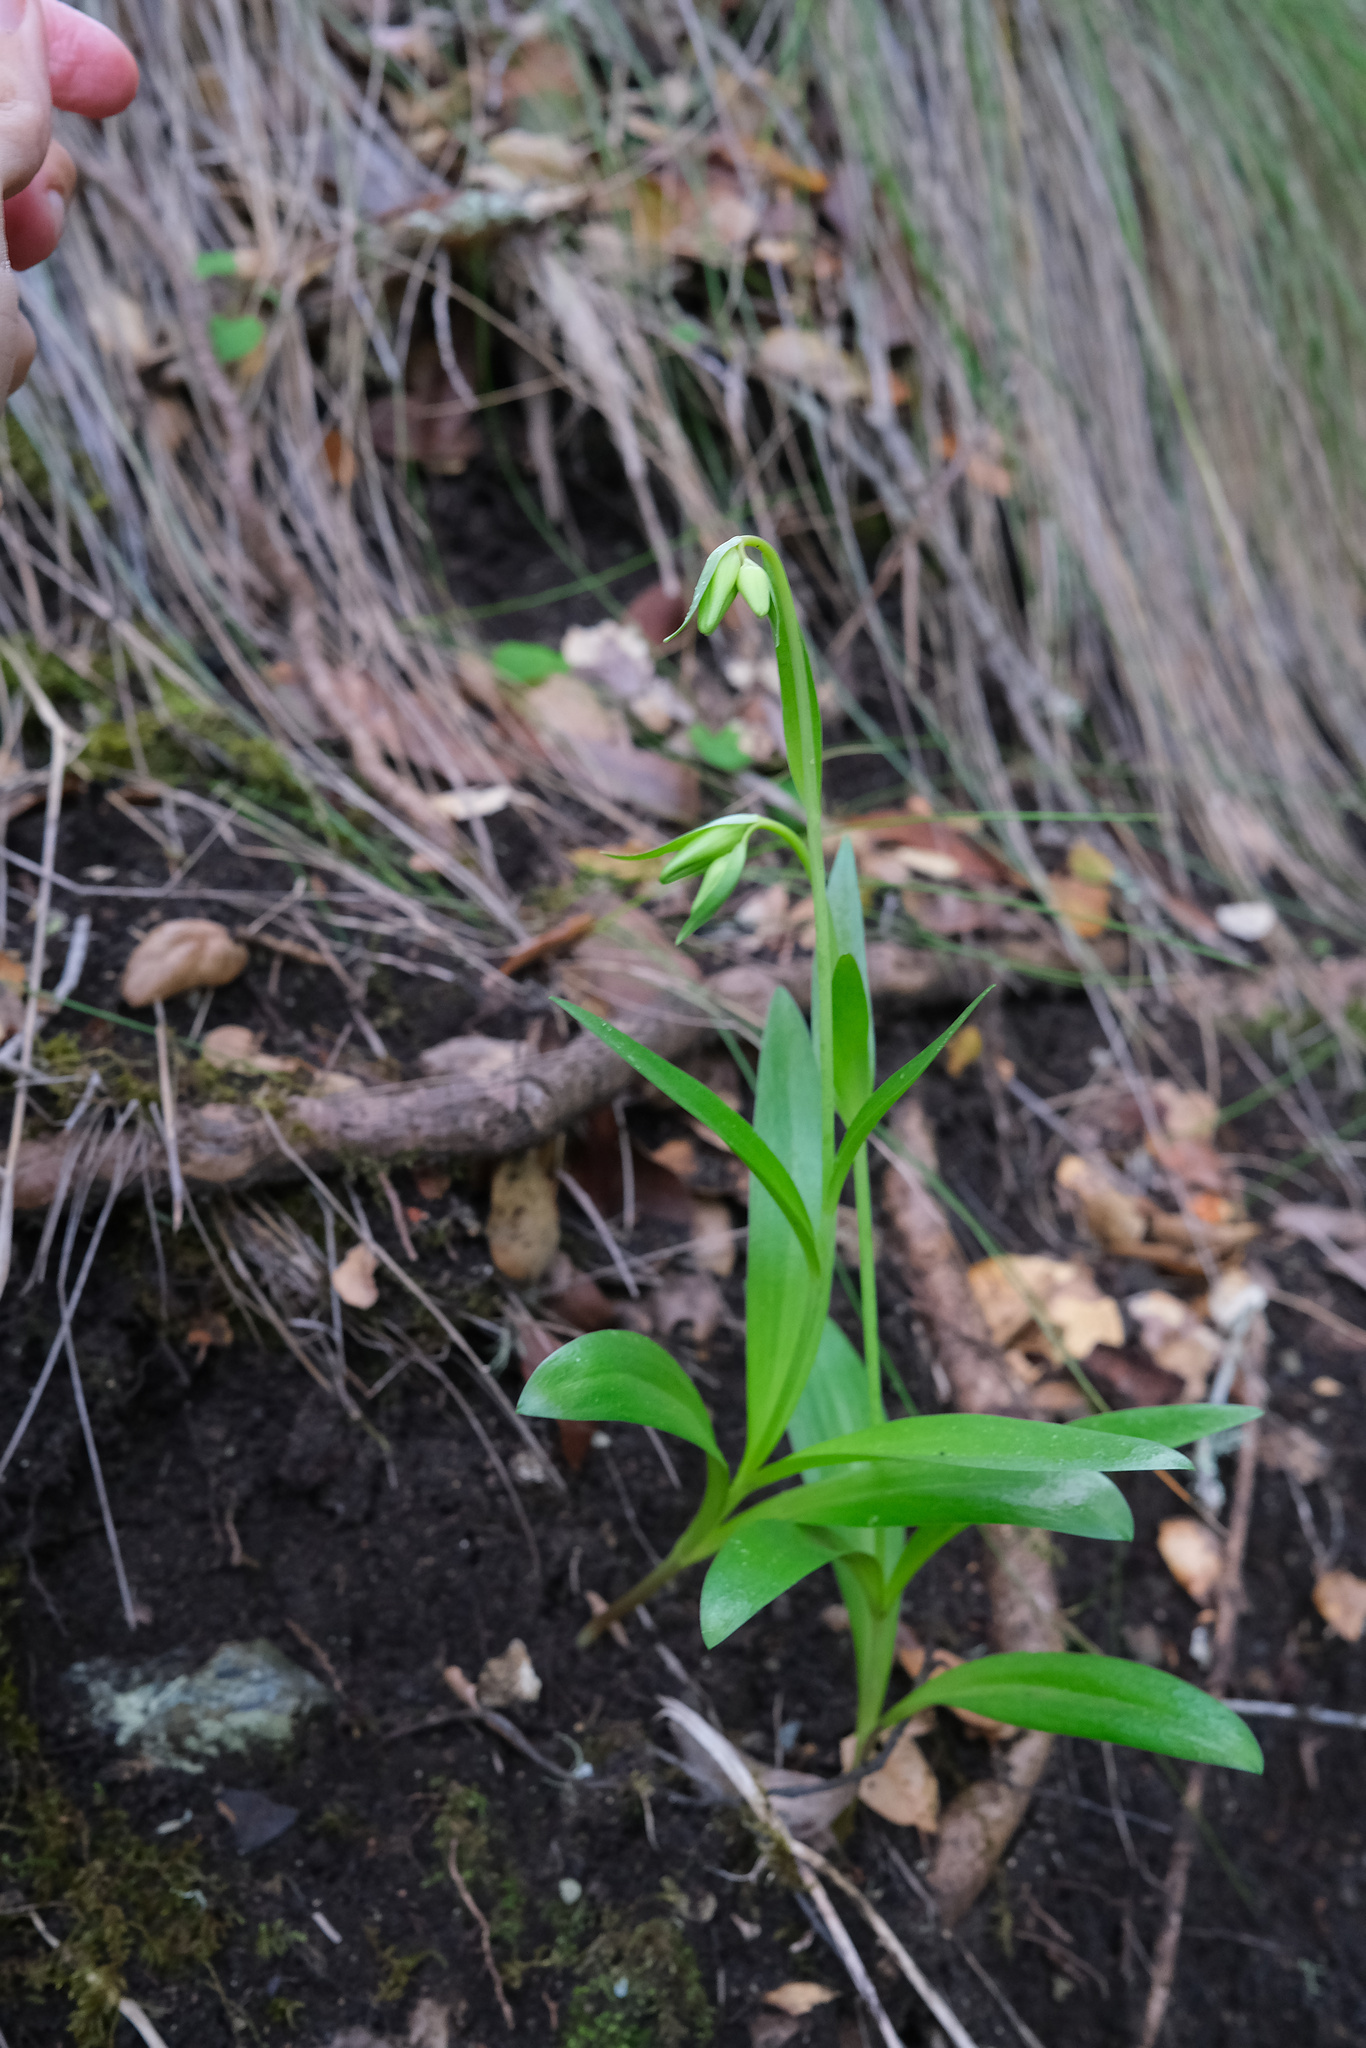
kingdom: Plantae
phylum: Tracheophyta
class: Liliopsida
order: Liliales
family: Liliaceae
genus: Fritillaria
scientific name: Fritillaria biflora
